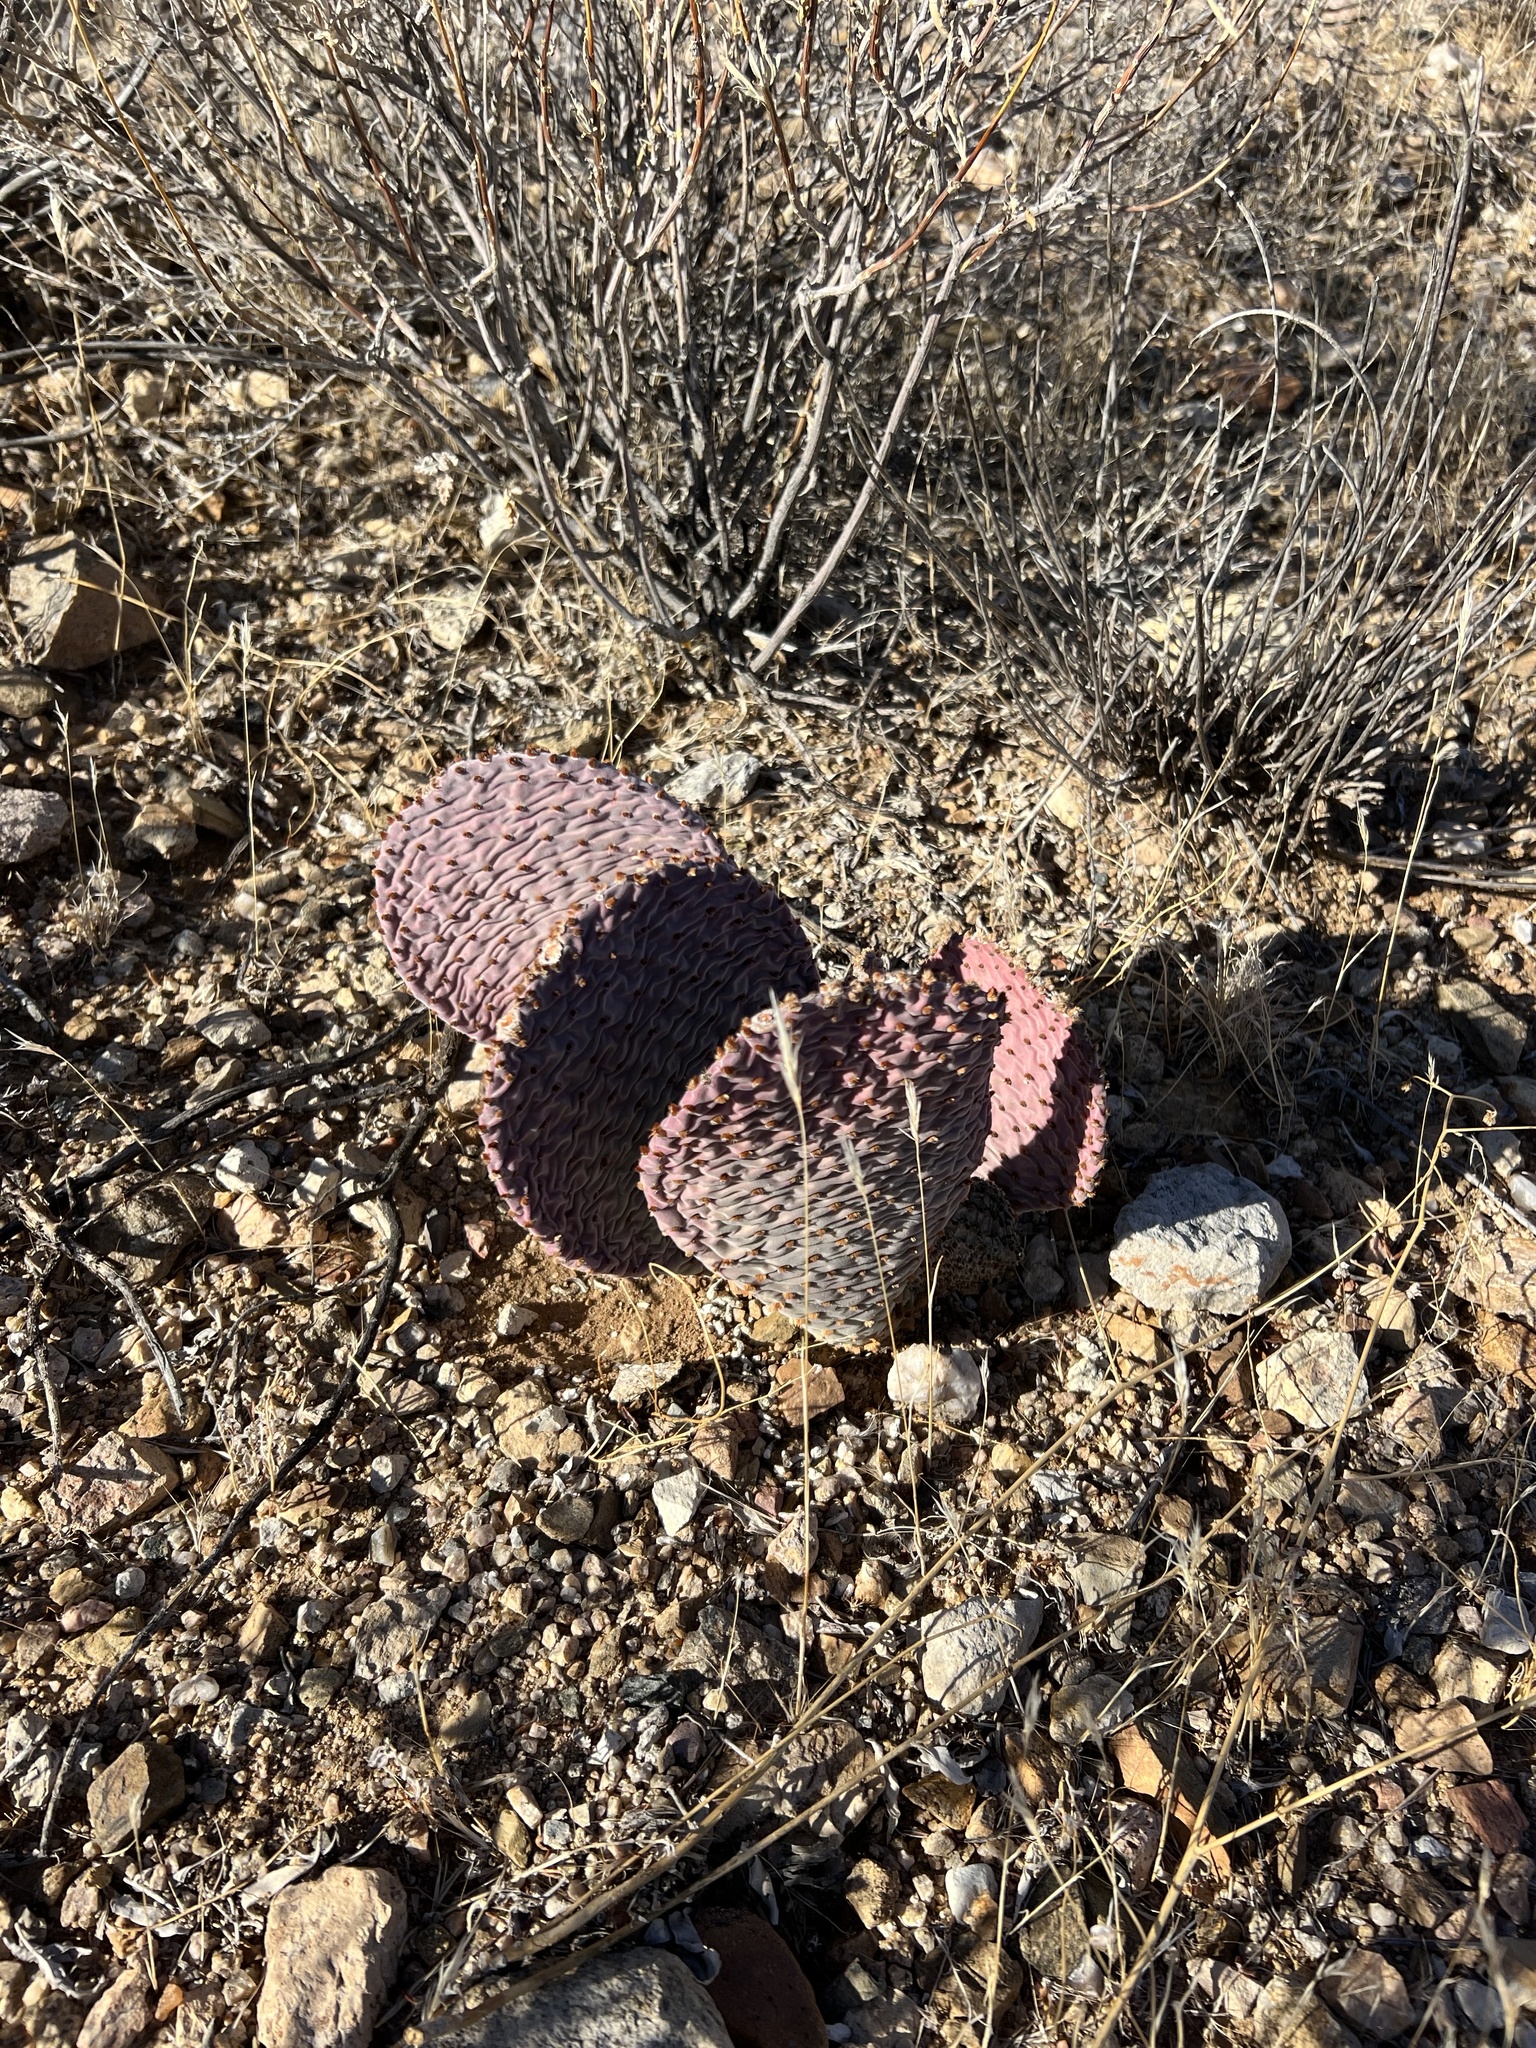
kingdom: Plantae
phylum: Tracheophyta
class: Magnoliopsida
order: Caryophyllales
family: Cactaceae
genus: Opuntia
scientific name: Opuntia basilaris
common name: Beavertail prickly-pear
